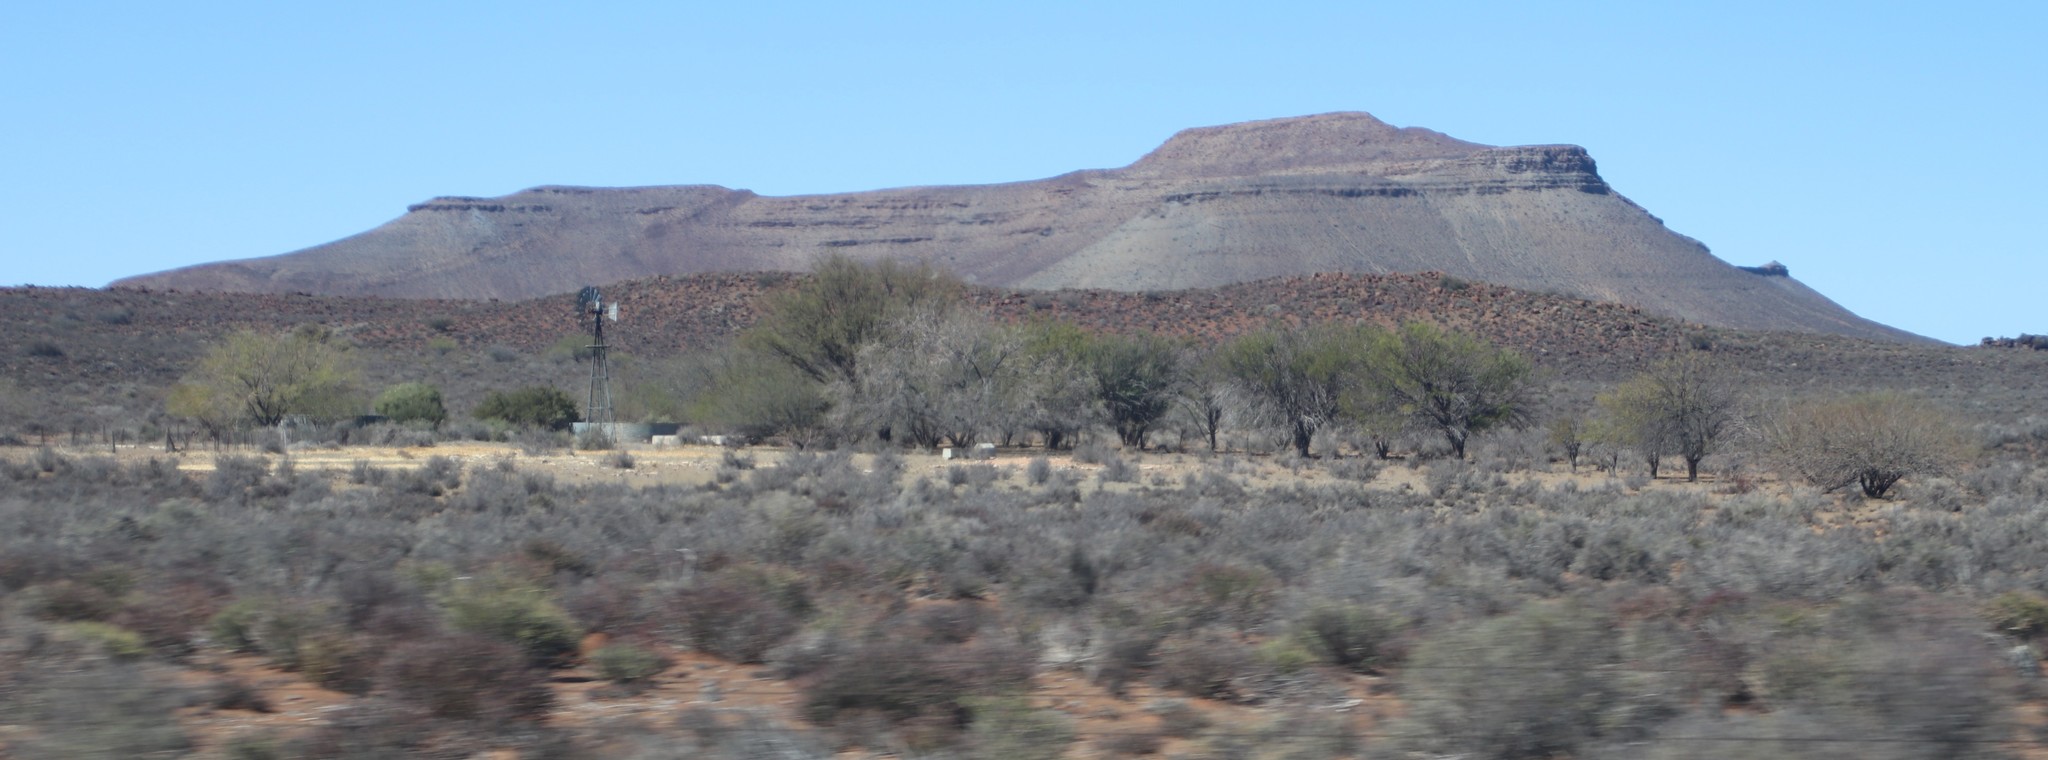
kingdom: Plantae
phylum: Tracheophyta
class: Magnoliopsida
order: Fabales
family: Fabaceae
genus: Vachellia
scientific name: Vachellia karroo
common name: Sweet thorn
